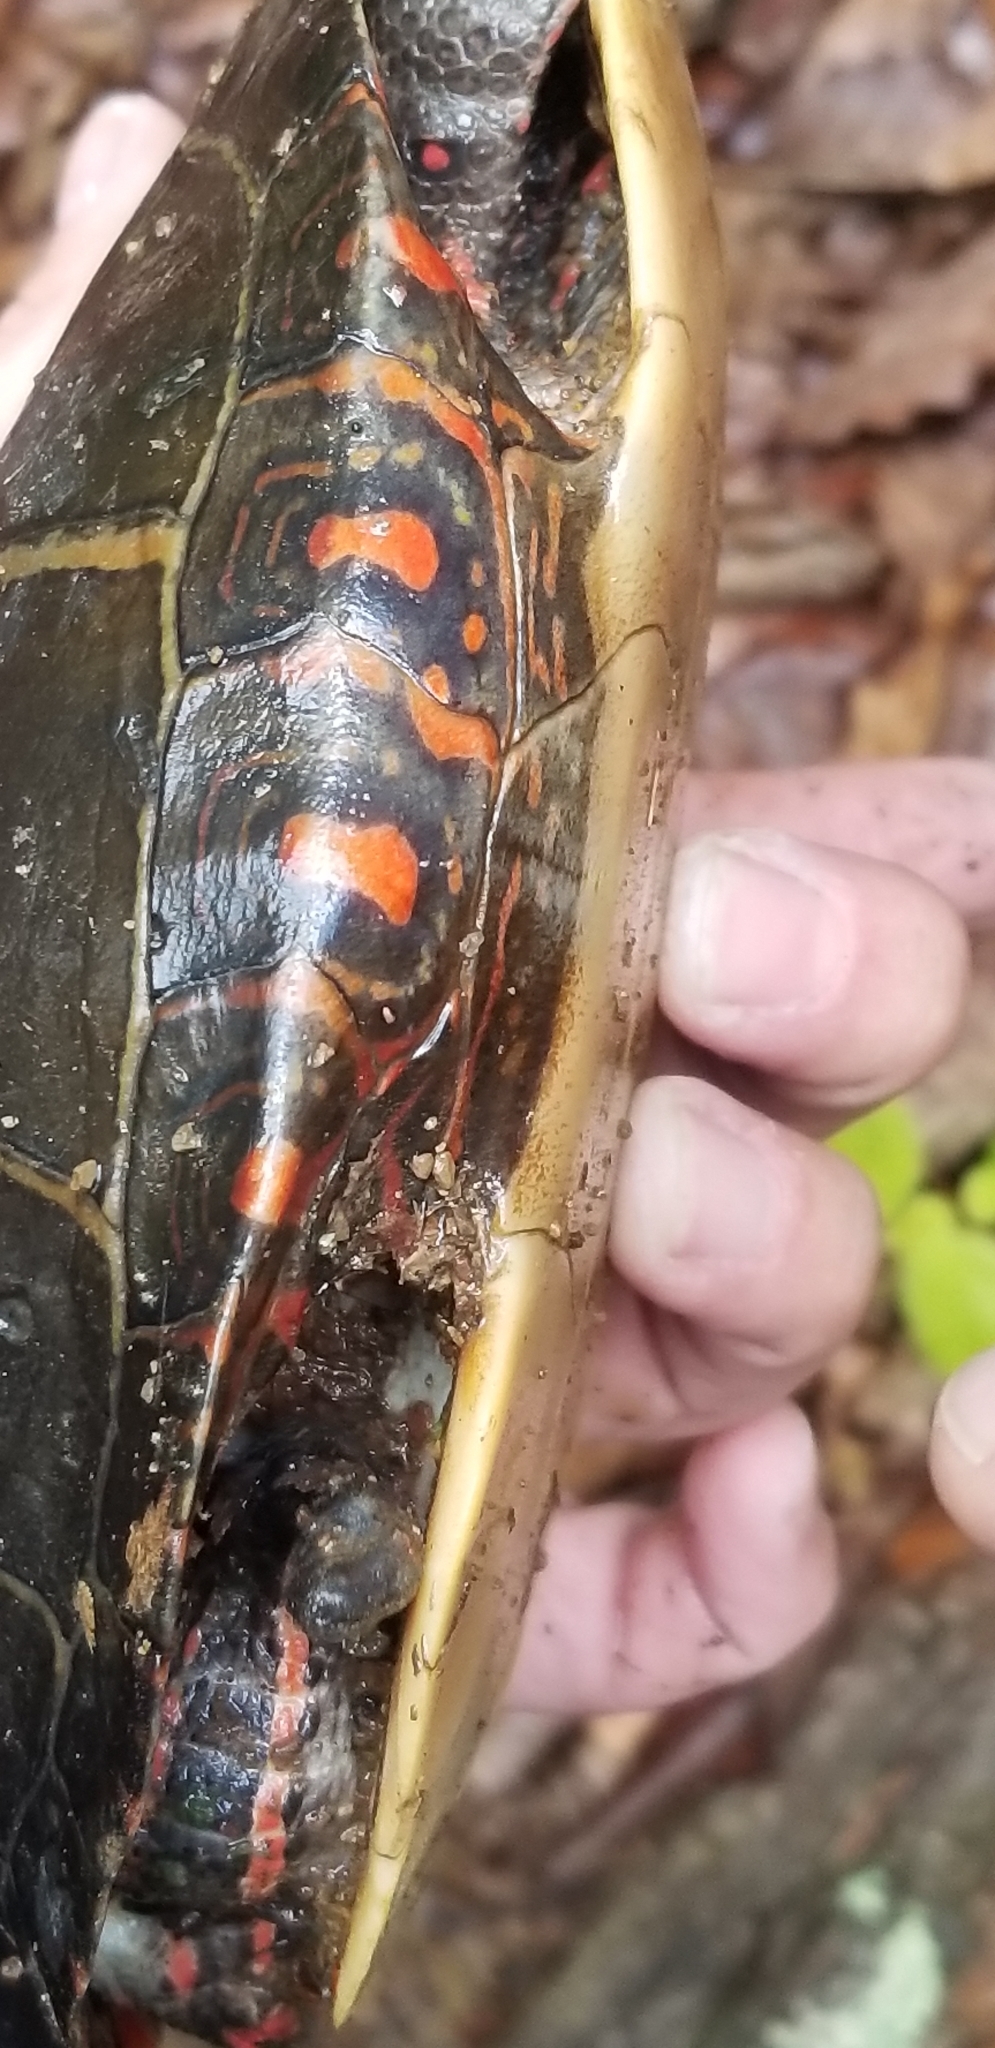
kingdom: Animalia
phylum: Chordata
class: Testudines
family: Emydidae
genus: Chrysemys
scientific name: Chrysemys picta
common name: Painted turtle
